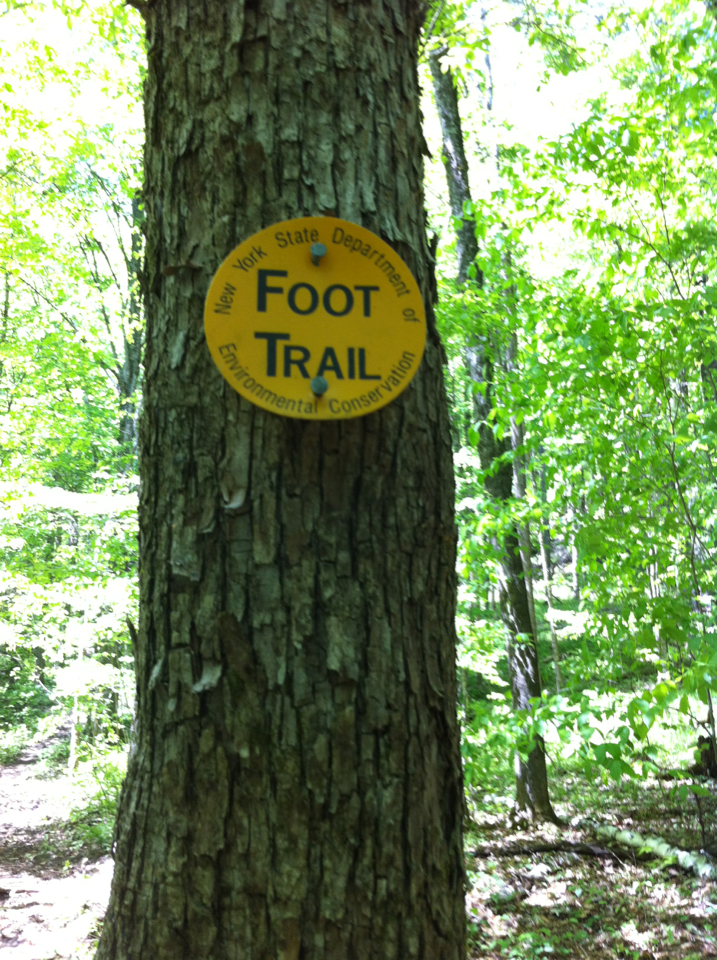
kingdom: Plantae
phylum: Tracheophyta
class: Magnoliopsida
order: Fagales
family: Betulaceae
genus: Ostrya
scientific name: Ostrya virginiana
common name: Ironwood
